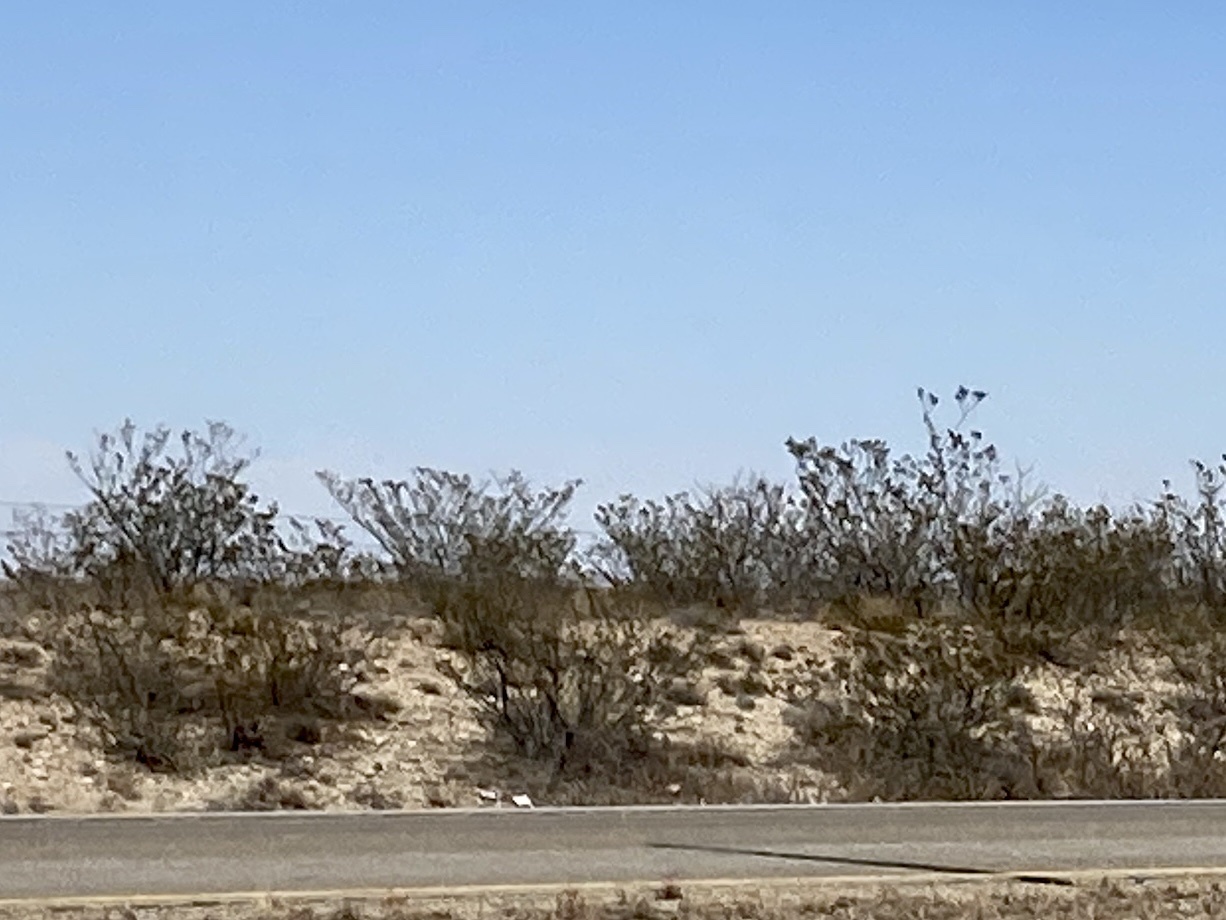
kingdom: Plantae
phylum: Tracheophyta
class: Magnoliopsida
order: Zygophyllales
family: Zygophyllaceae
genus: Larrea
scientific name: Larrea tridentata
